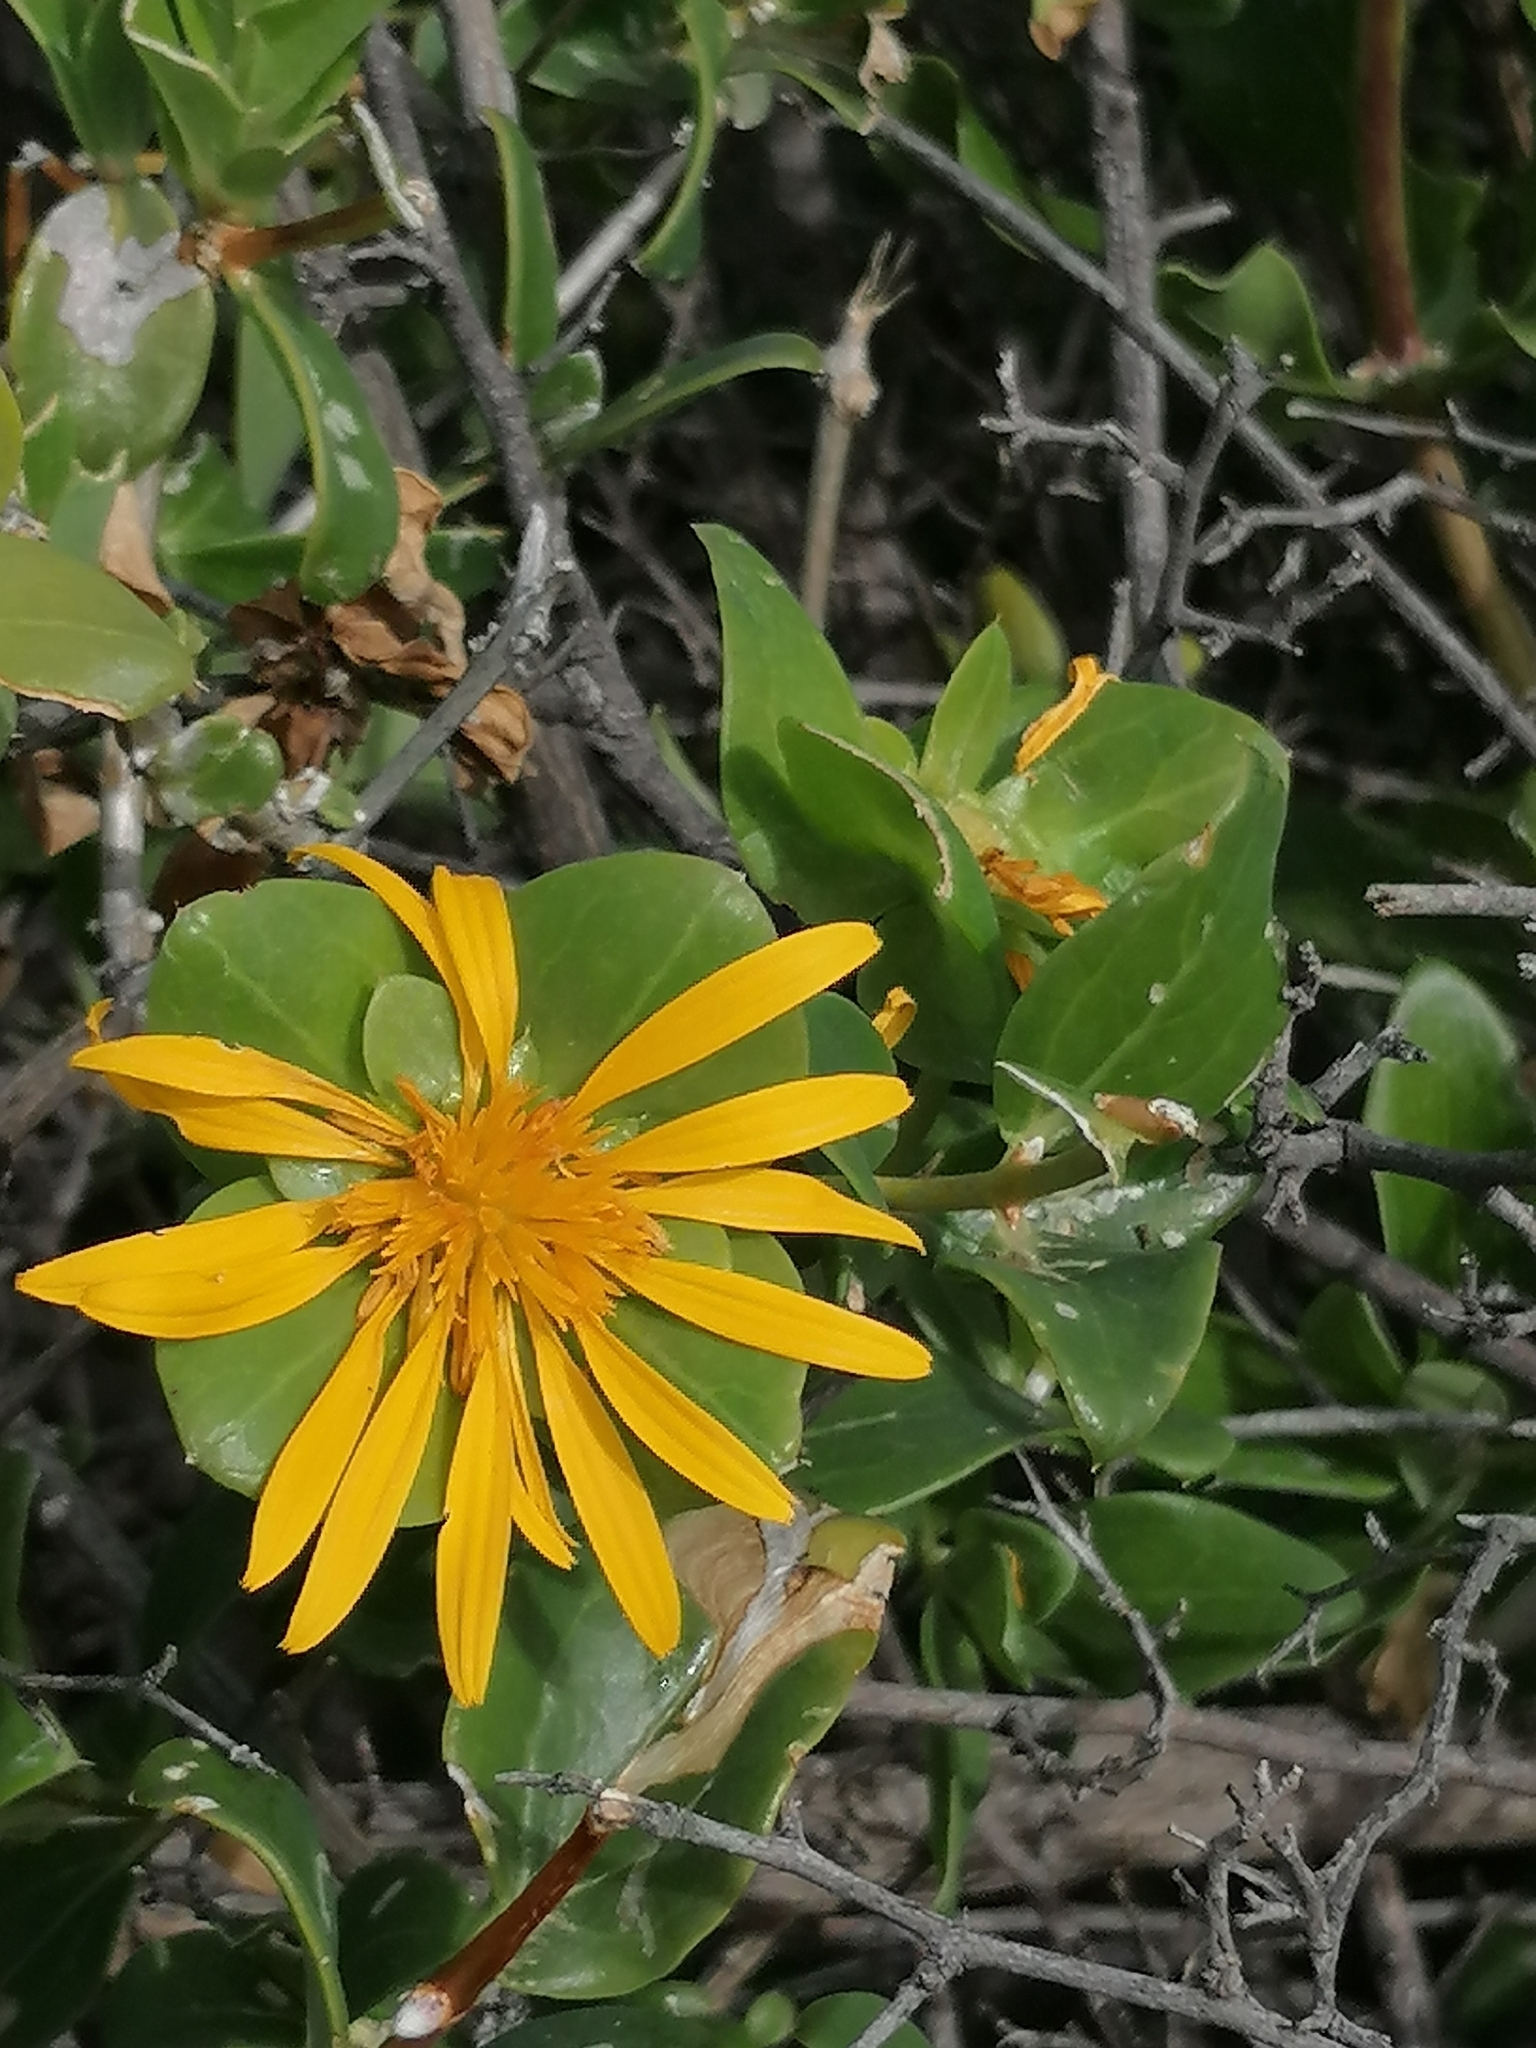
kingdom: Plantae
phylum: Tracheophyta
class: Magnoliopsida
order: Asterales
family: Asteraceae
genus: Didelta
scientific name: Didelta spinosa
